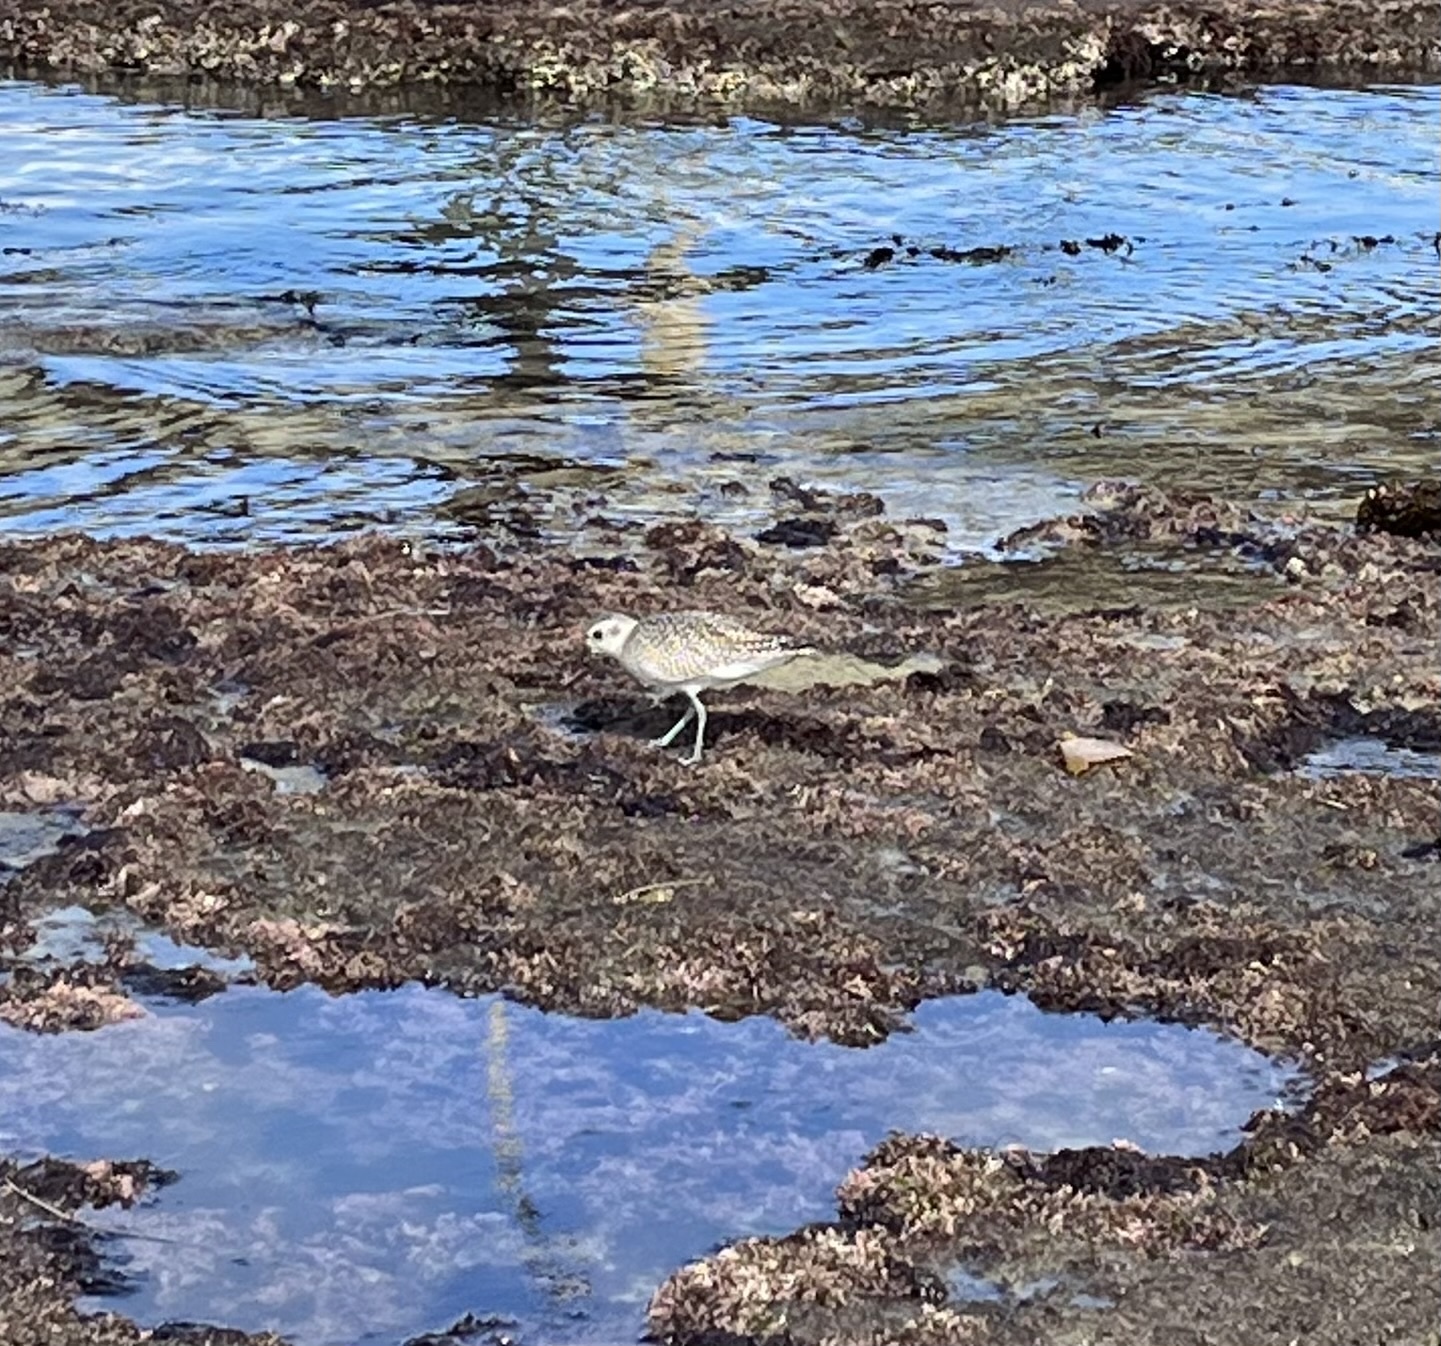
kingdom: Animalia
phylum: Chordata
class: Aves
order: Charadriiformes
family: Charadriidae
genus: Pluvialis
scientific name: Pluvialis squatarola
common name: Grey plover
